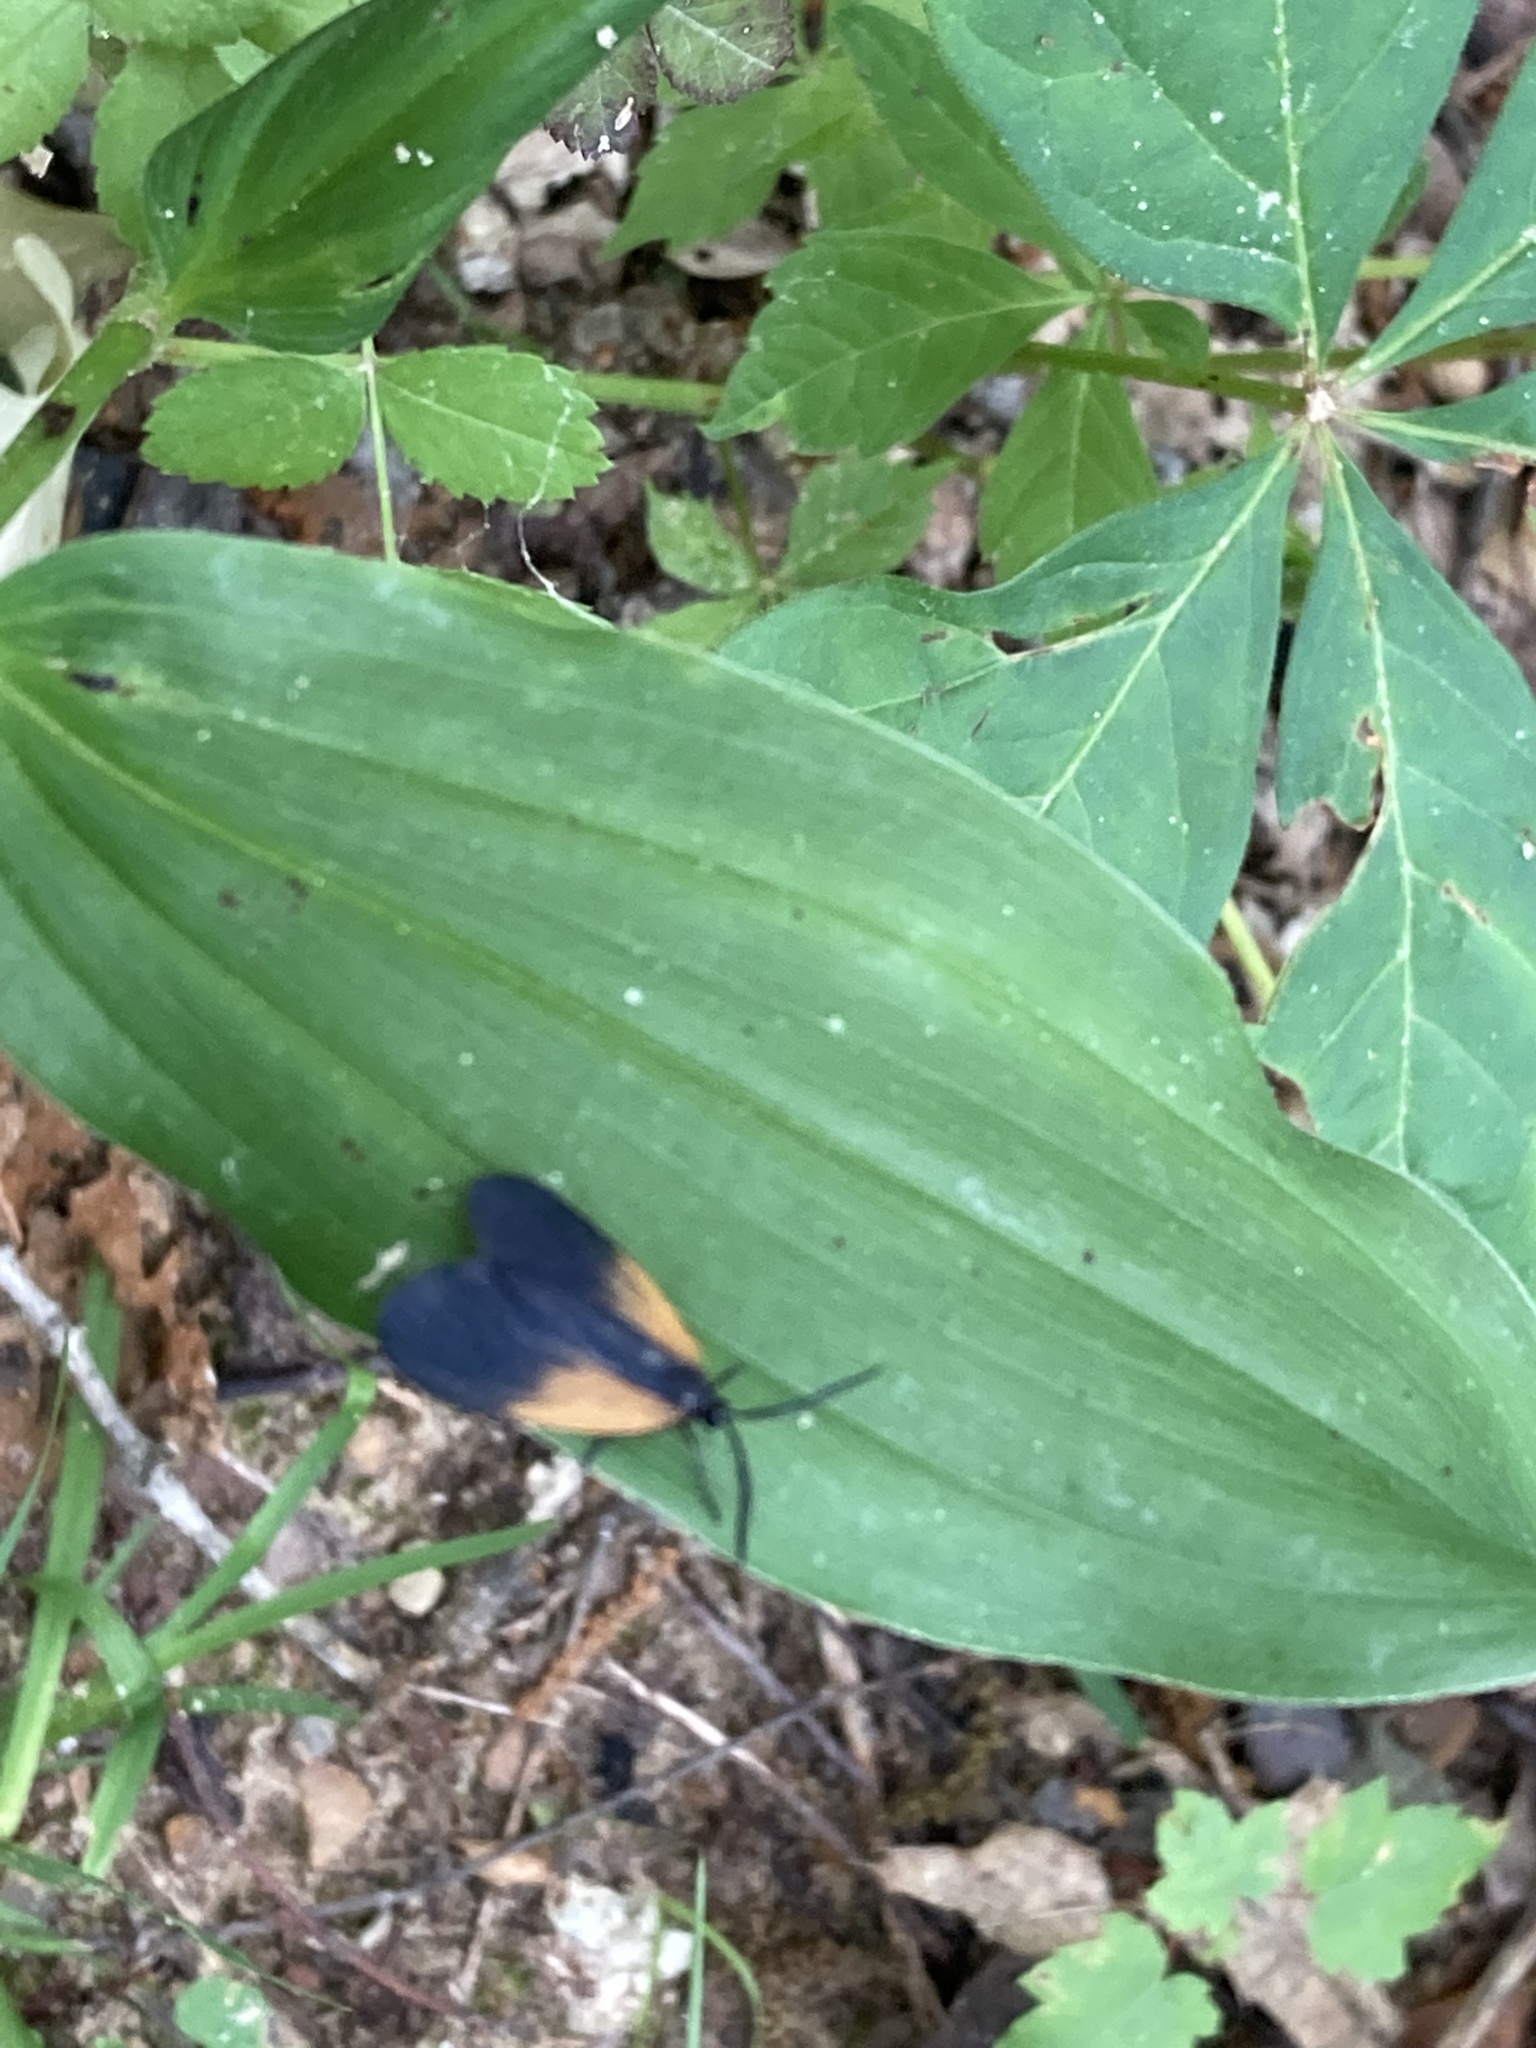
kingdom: Animalia
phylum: Arthropoda
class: Insecta
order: Lepidoptera
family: Zygaenidae
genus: Malthaca
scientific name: Malthaca dimidiata
